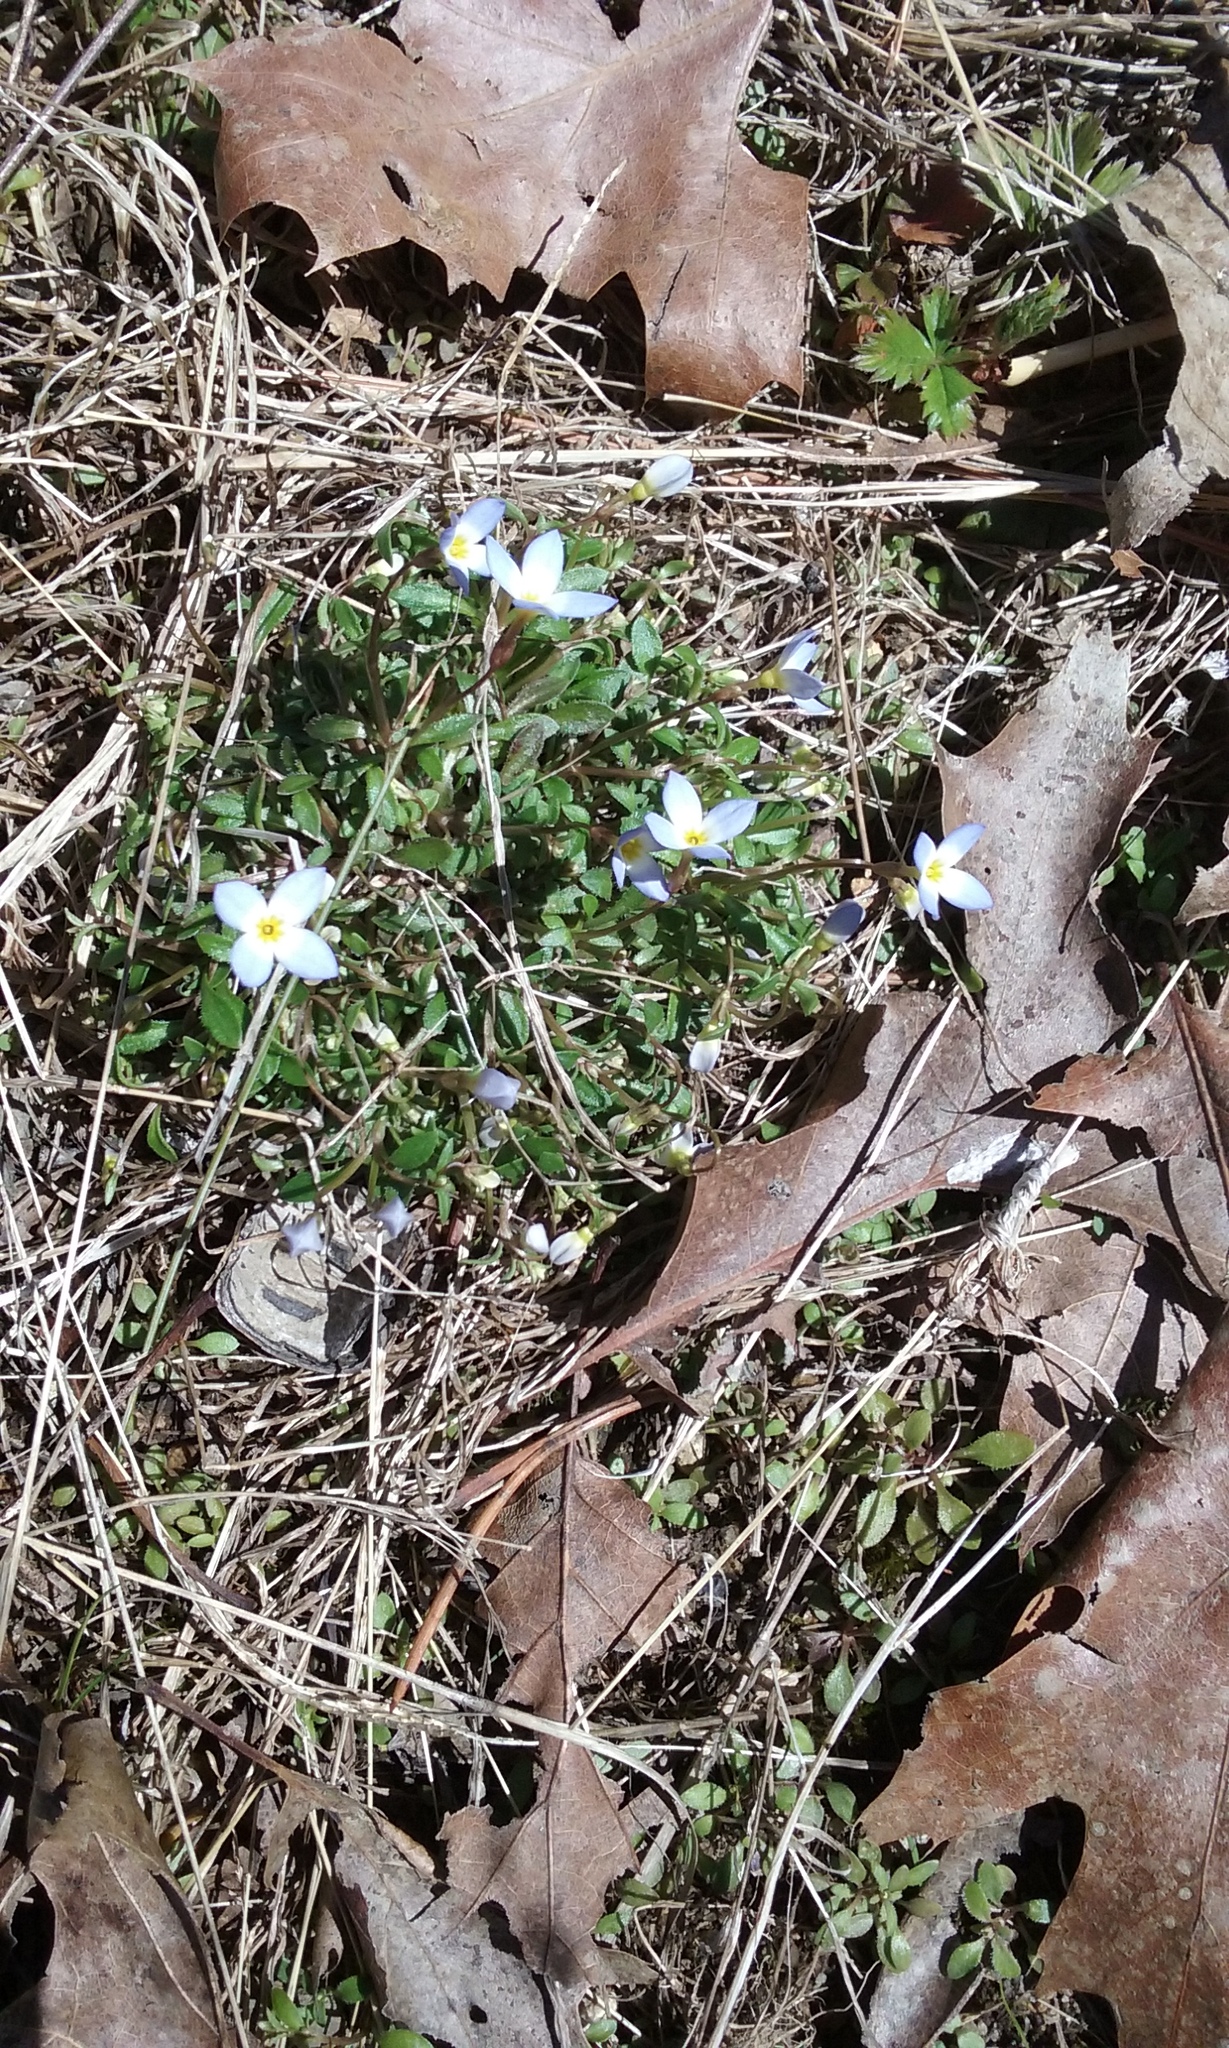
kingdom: Plantae
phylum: Tracheophyta
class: Magnoliopsida
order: Gentianales
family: Rubiaceae
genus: Houstonia
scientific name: Houstonia caerulea
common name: Bluets
